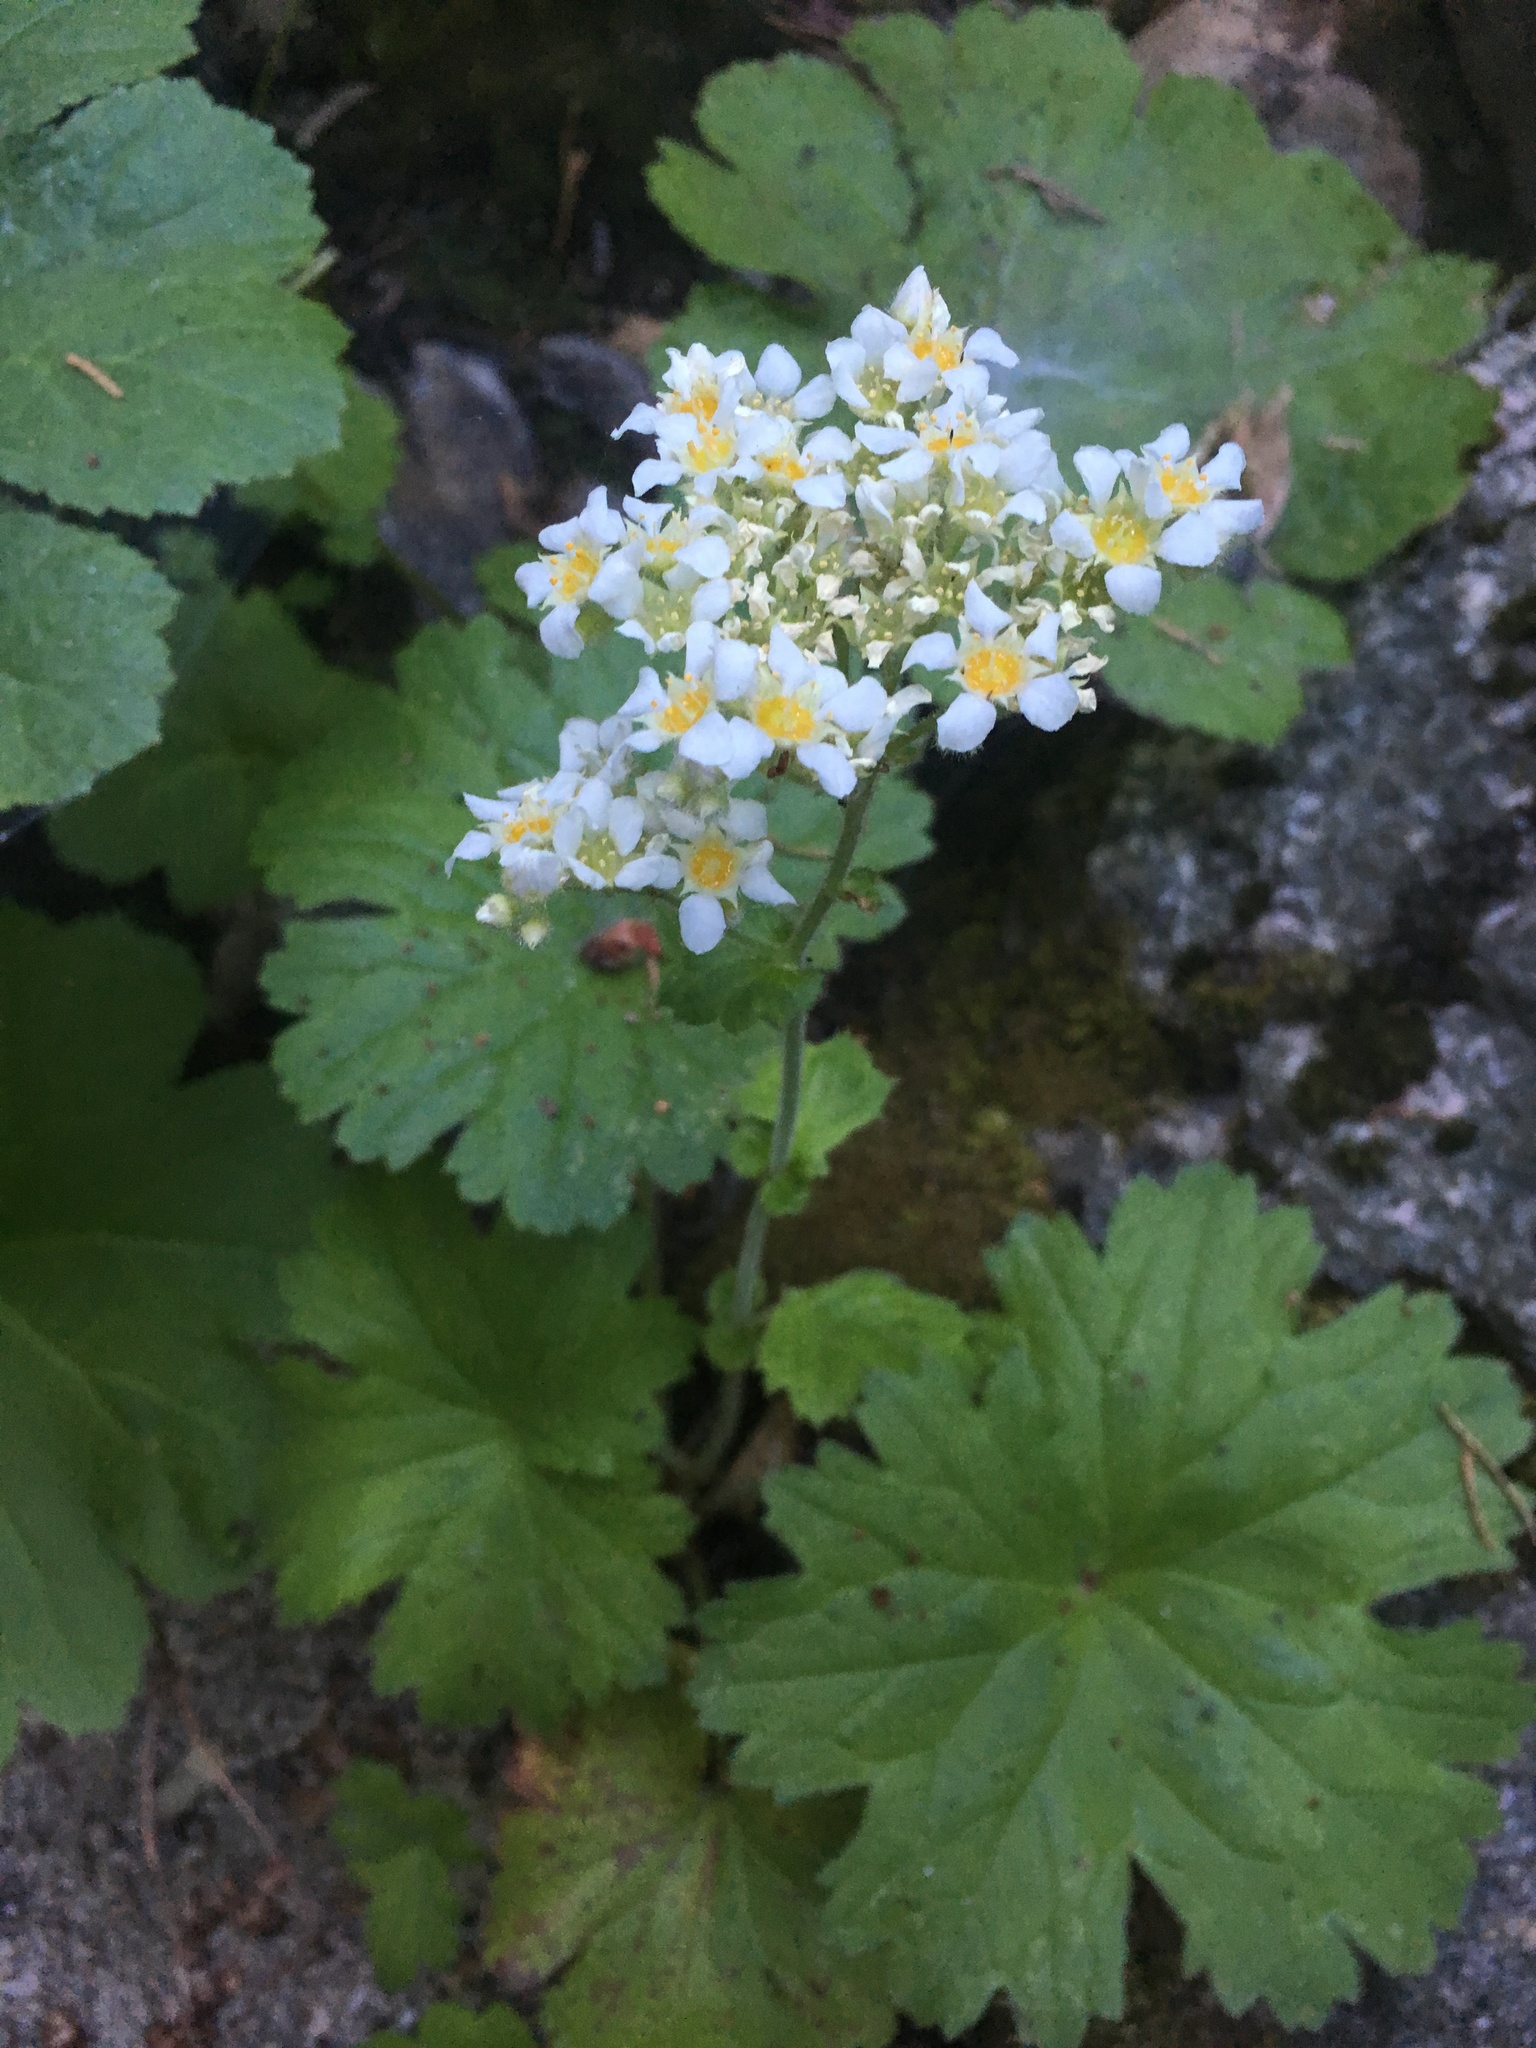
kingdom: Plantae
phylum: Tracheophyta
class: Magnoliopsida
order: Saxifragales
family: Saxifragaceae
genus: Boykinia
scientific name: Boykinia major
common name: Large boykinia
